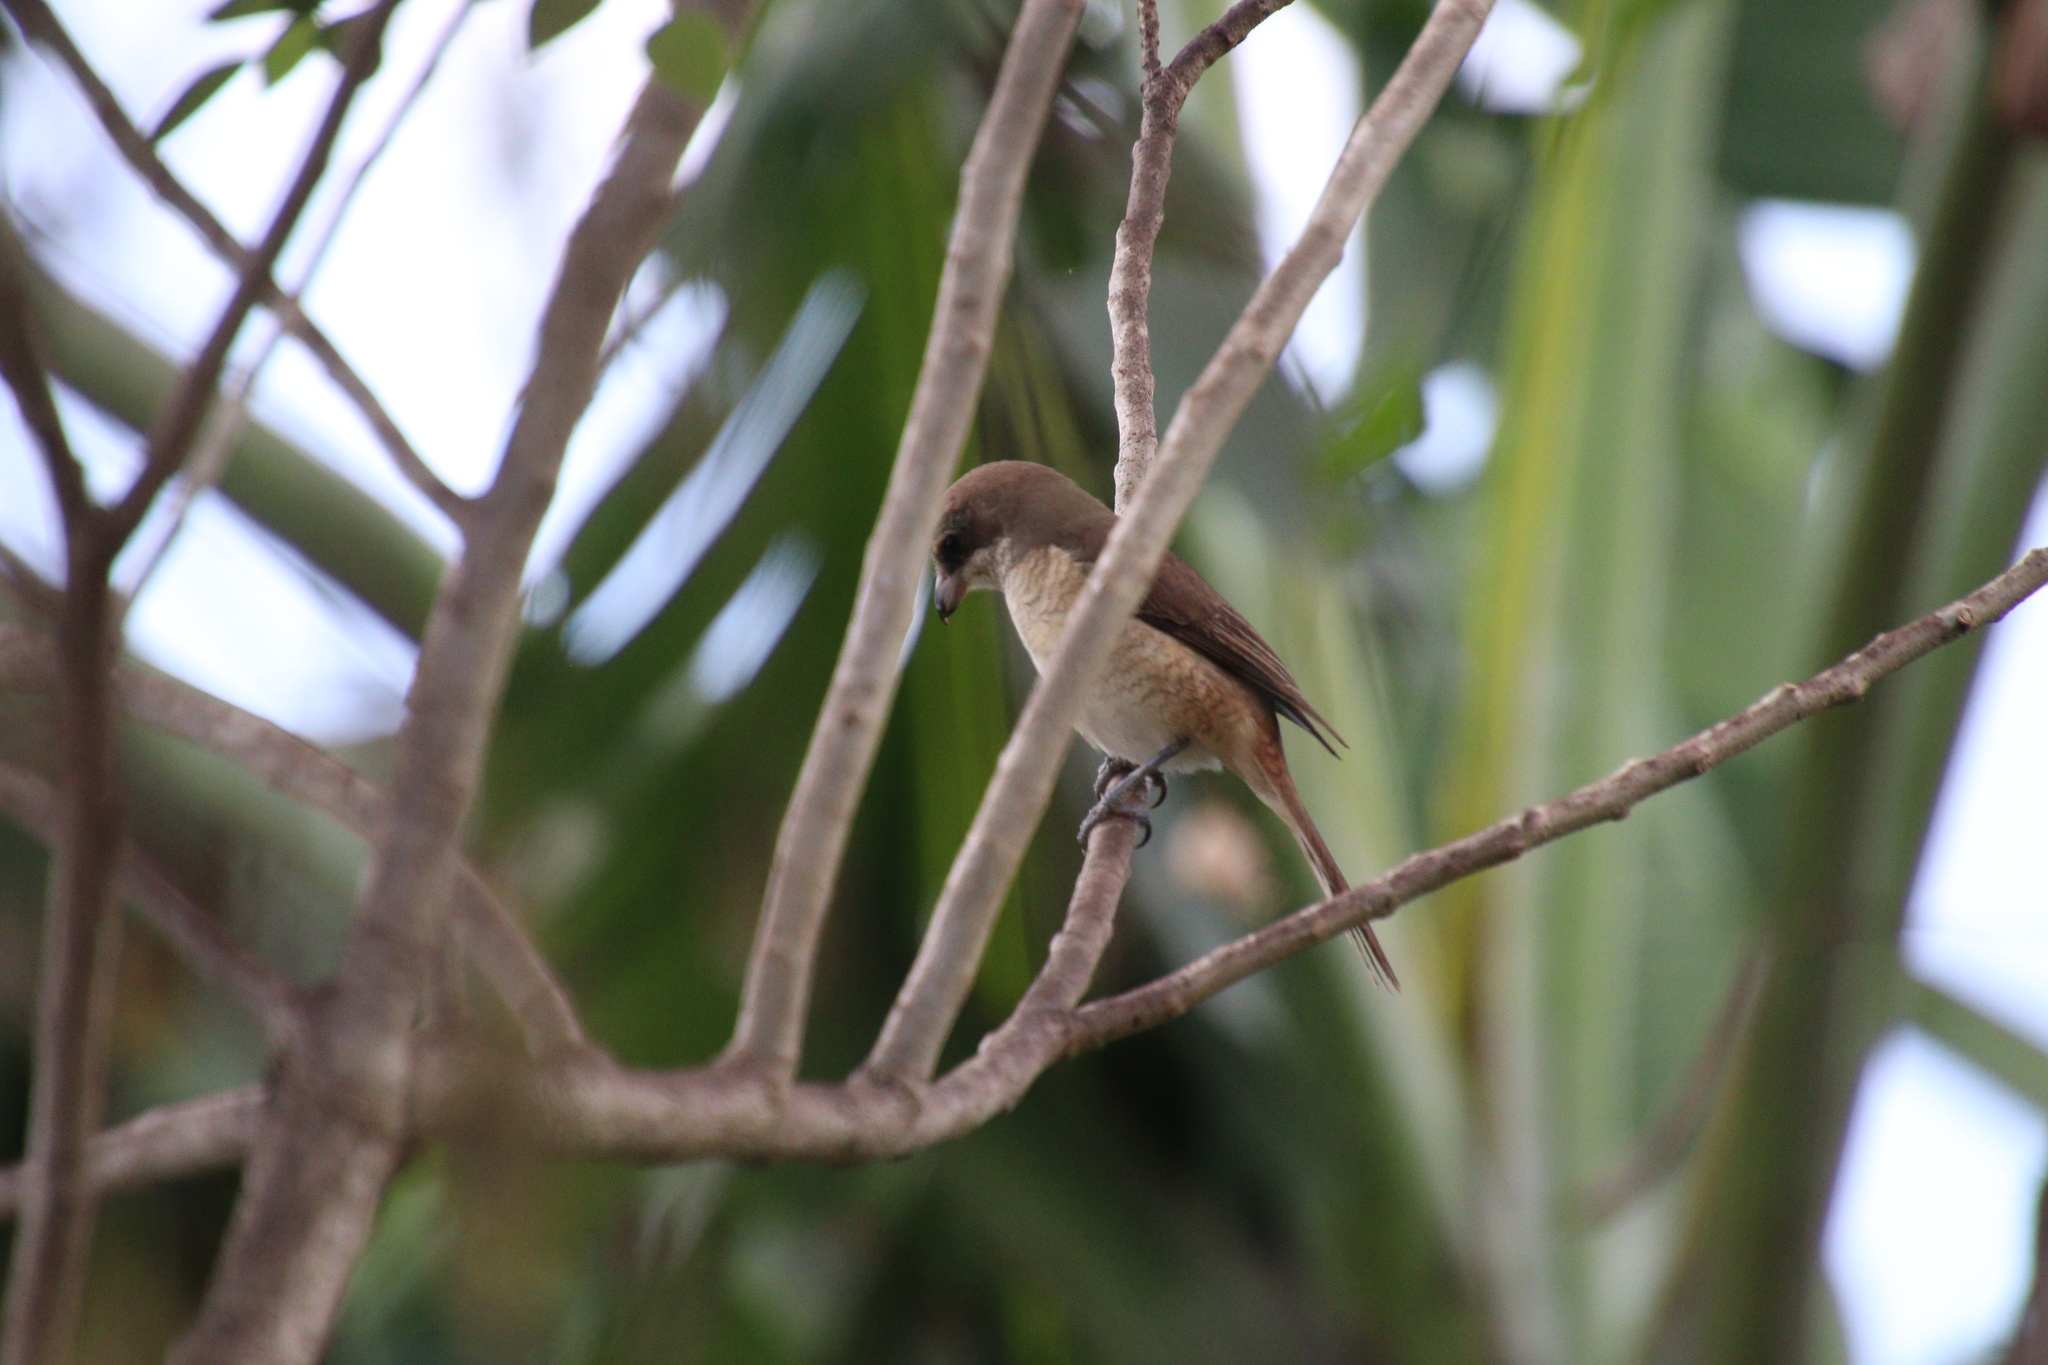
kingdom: Animalia
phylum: Chordata
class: Aves
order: Passeriformes
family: Laniidae
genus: Lanius
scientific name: Lanius cristatus
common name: Brown shrike
